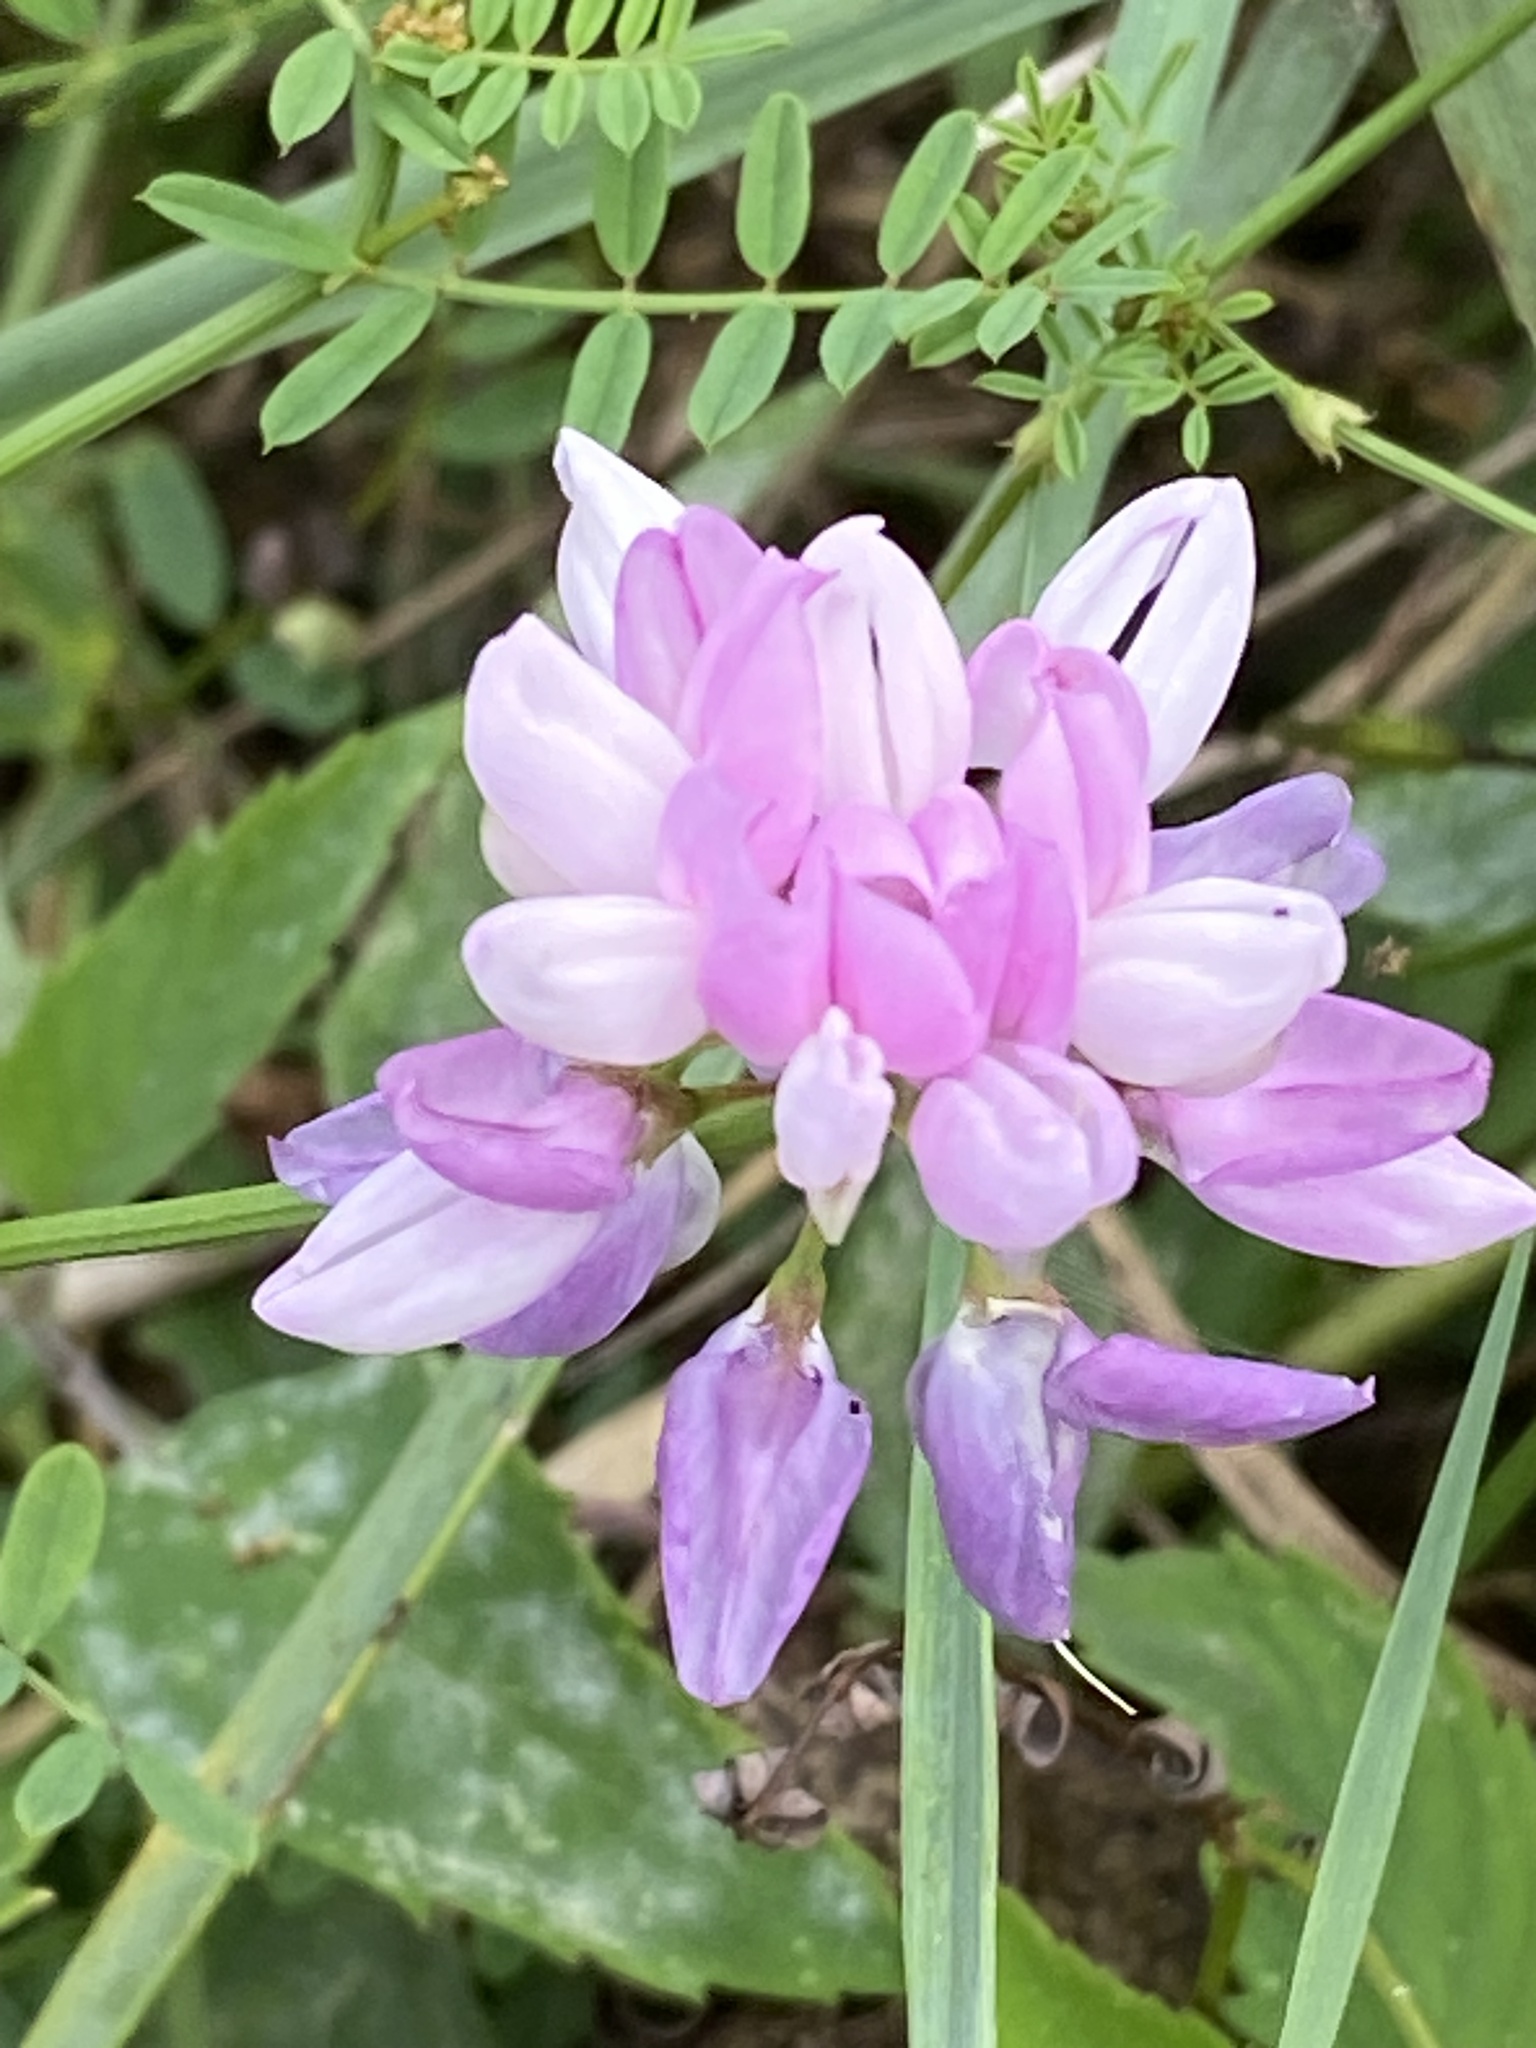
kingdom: Plantae
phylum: Tracheophyta
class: Magnoliopsida
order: Fabales
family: Fabaceae
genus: Coronilla
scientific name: Coronilla varia
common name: Crownvetch
